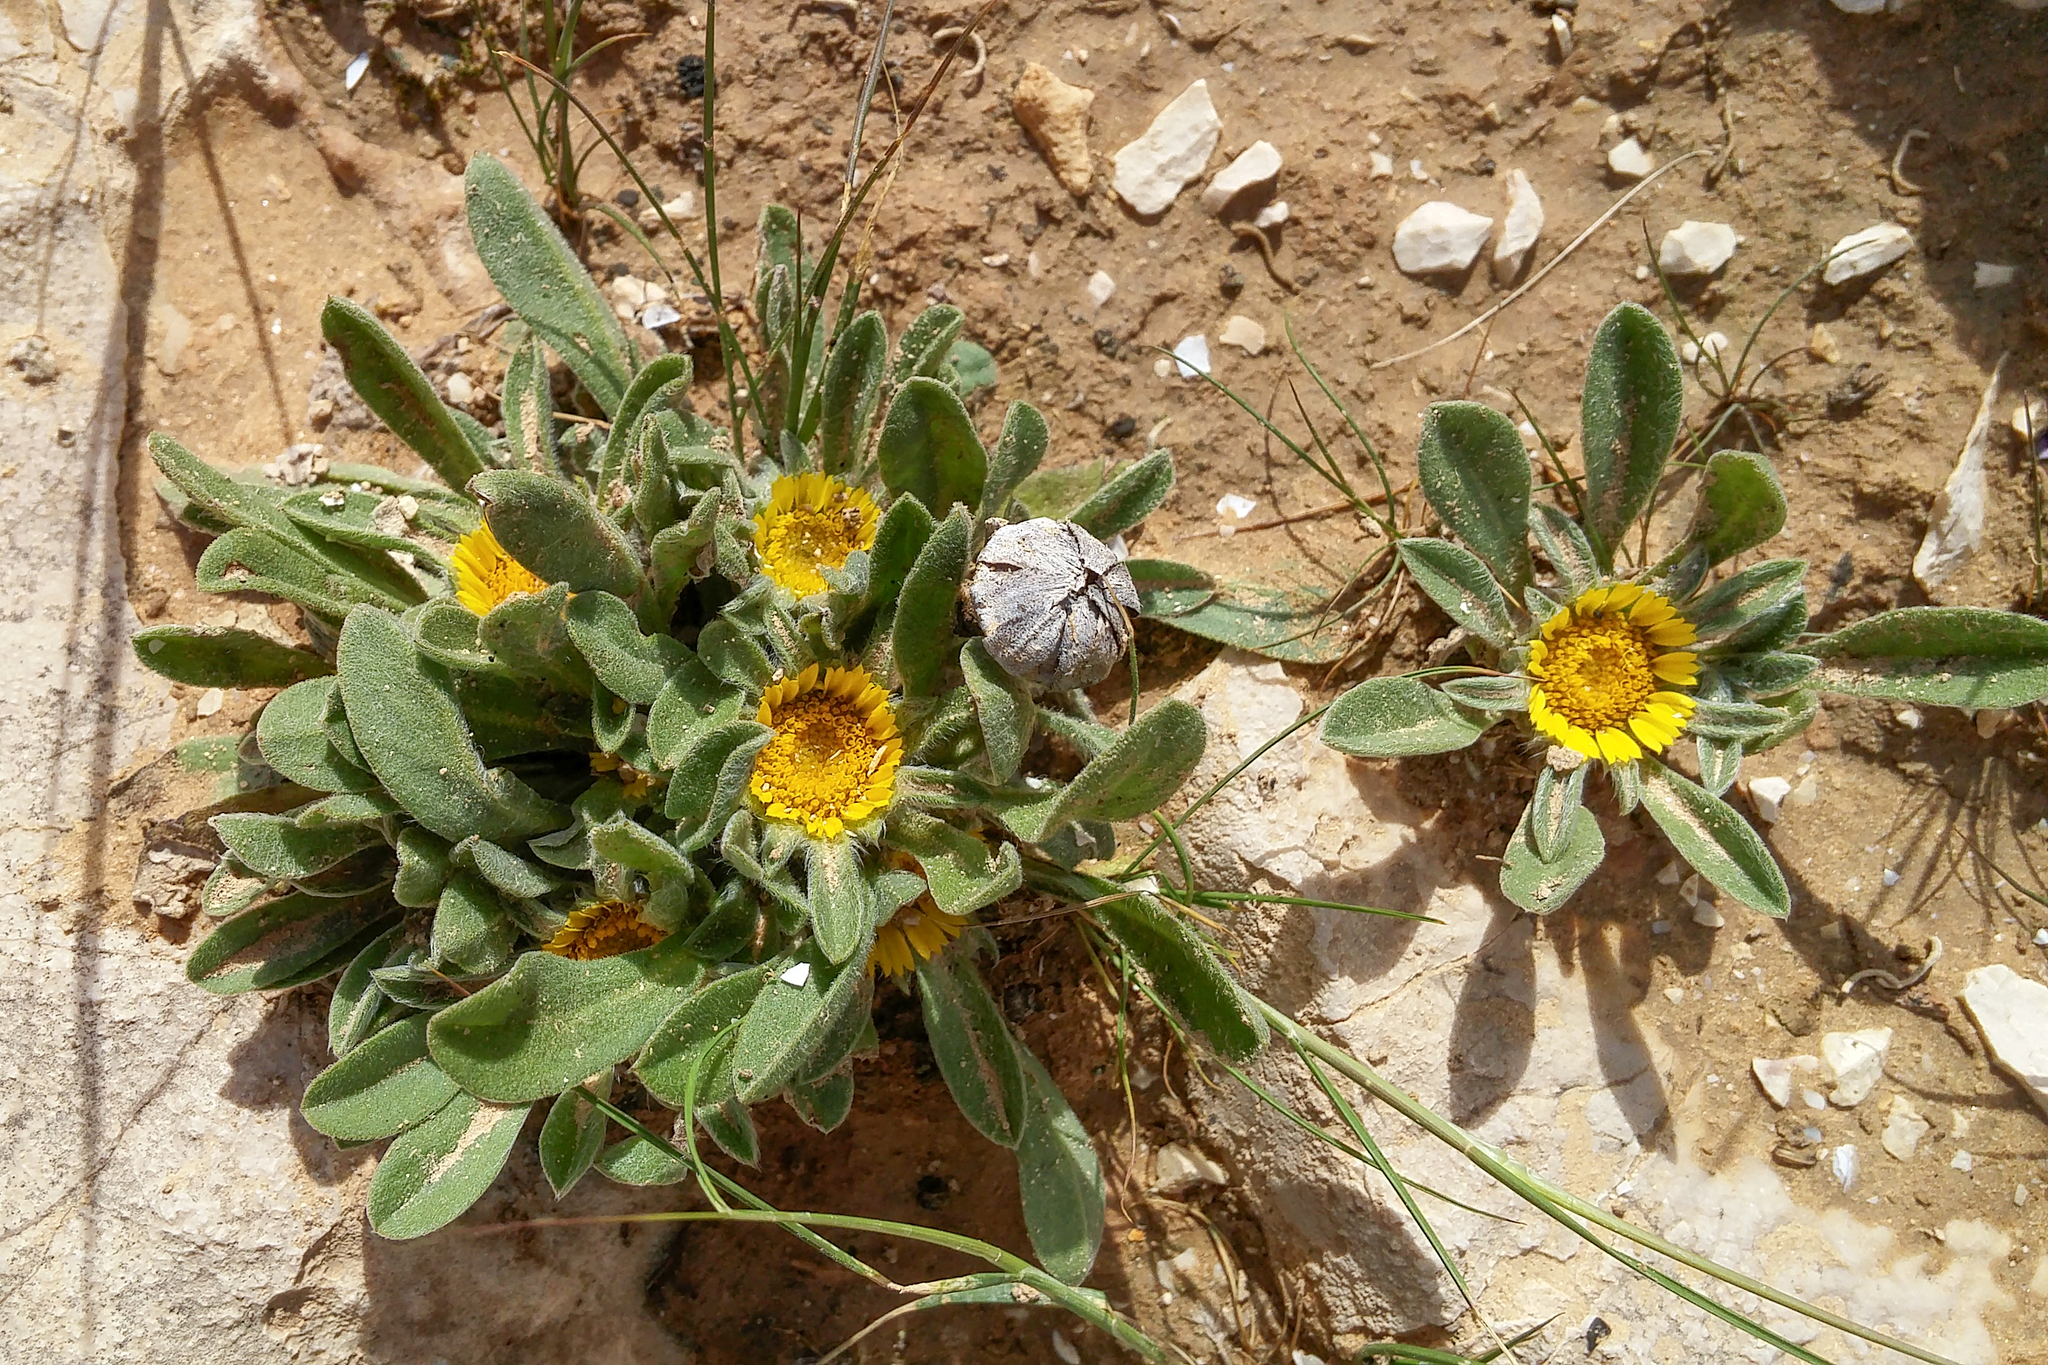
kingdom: Plantae
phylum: Tracheophyta
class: Magnoliopsida
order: Asterales
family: Asteraceae
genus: Pallenis
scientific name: Pallenis hierochuntica
